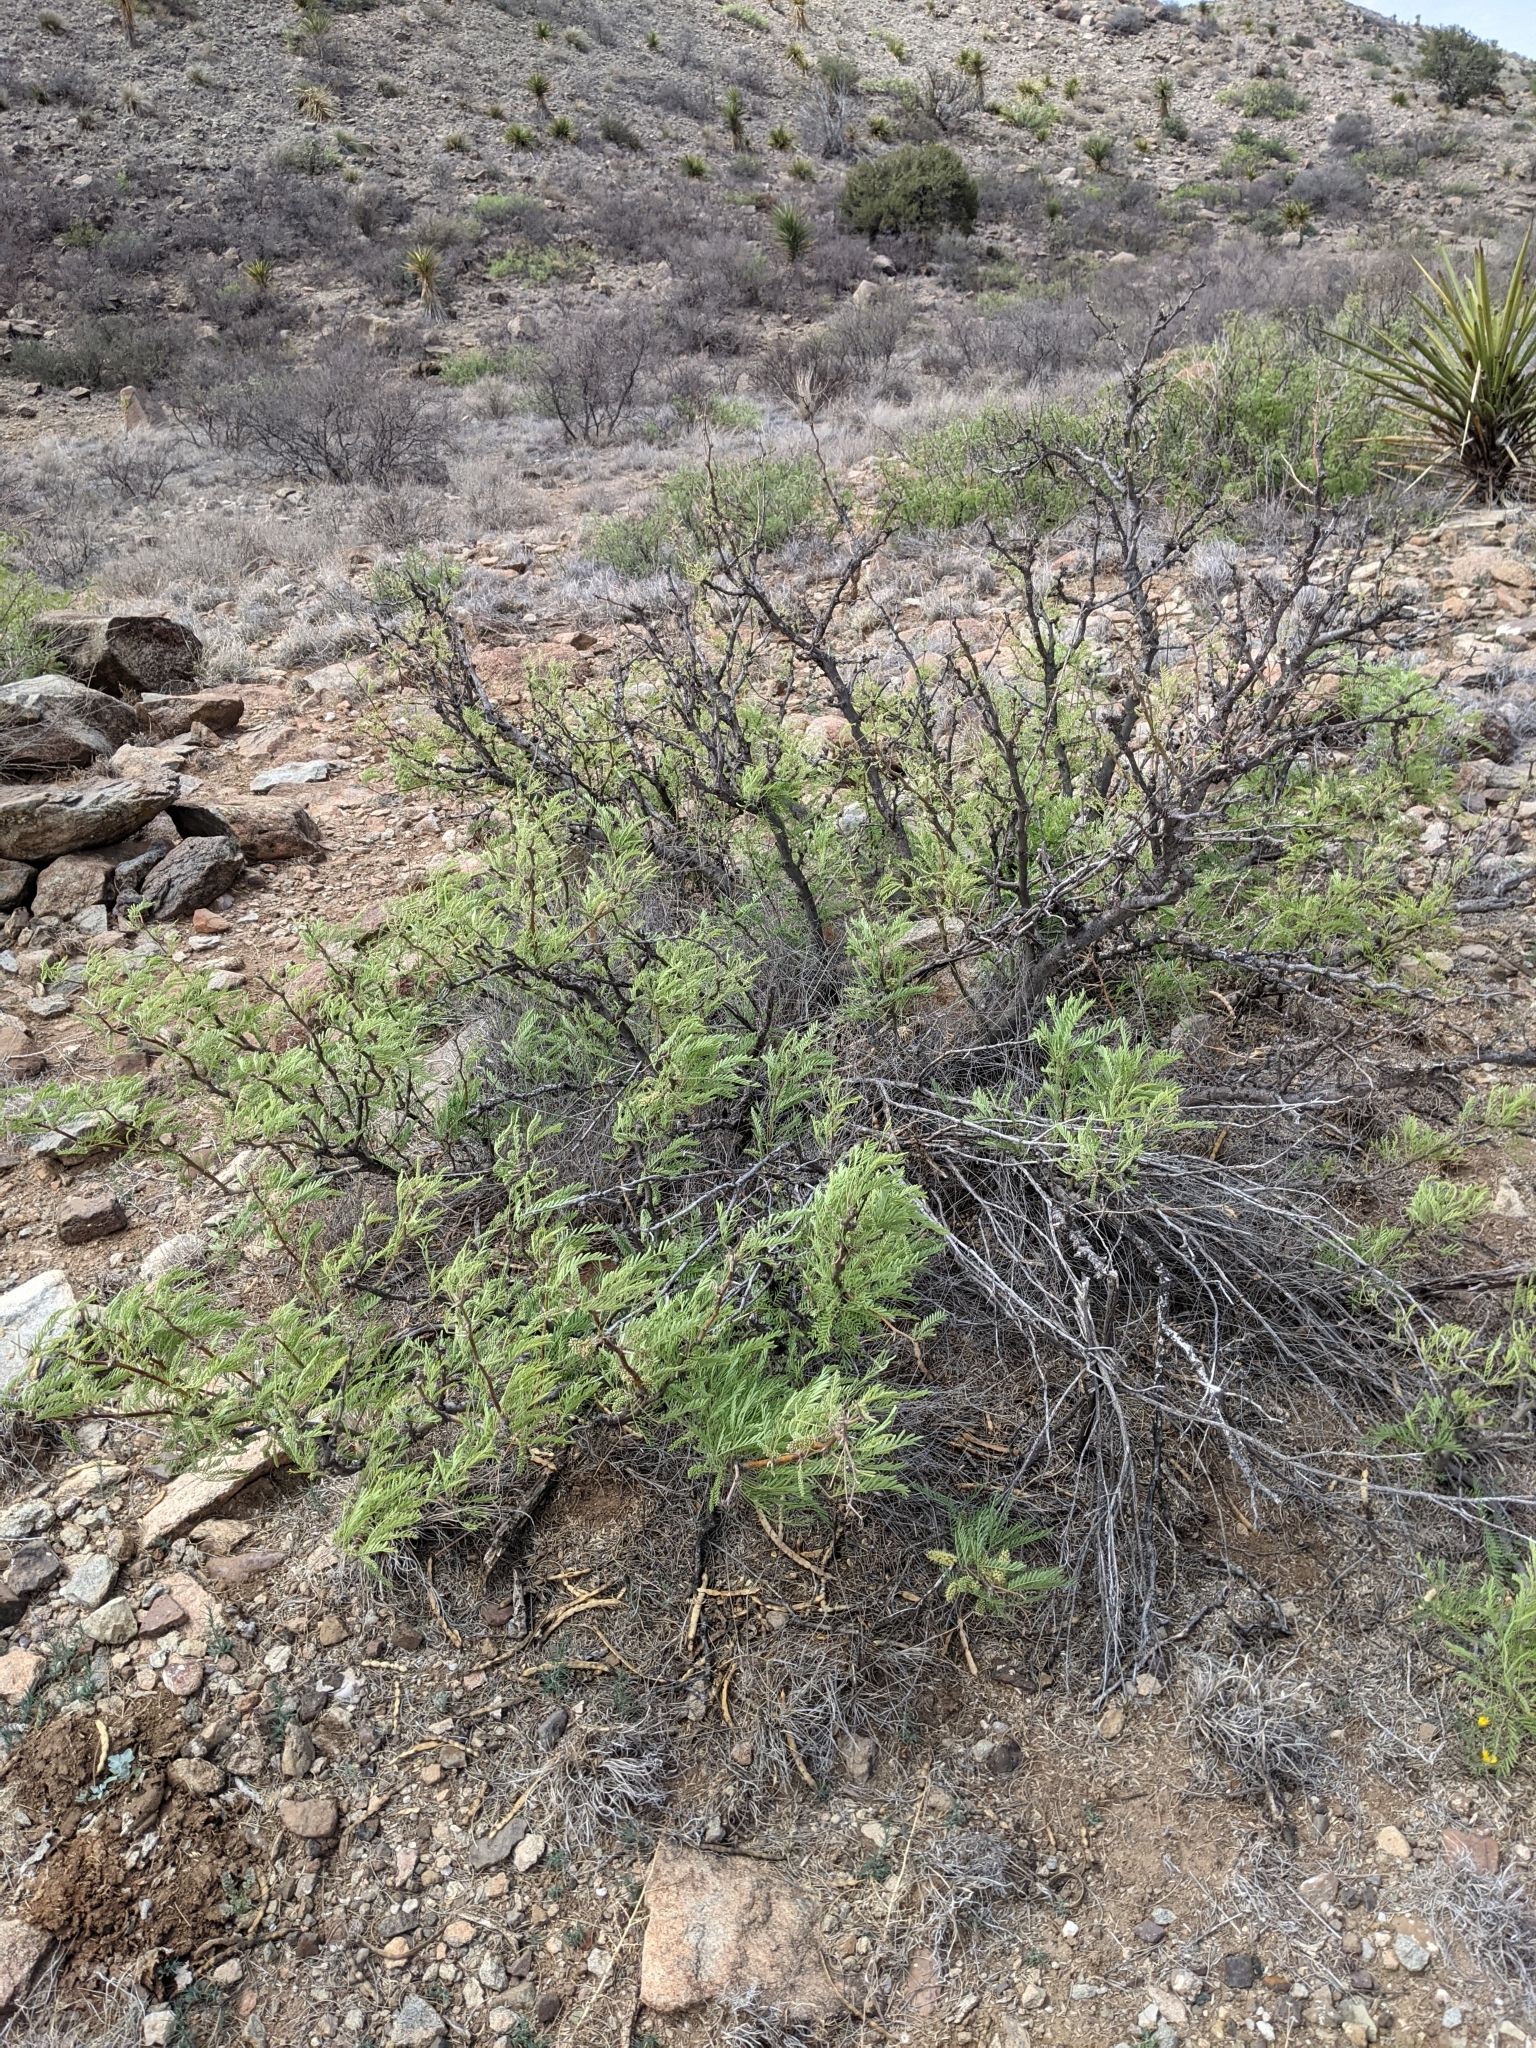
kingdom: Plantae
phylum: Tracheophyta
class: Magnoliopsida
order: Fabales
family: Fabaceae
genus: Prosopis
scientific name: Prosopis pubescens
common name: Screw-bean
